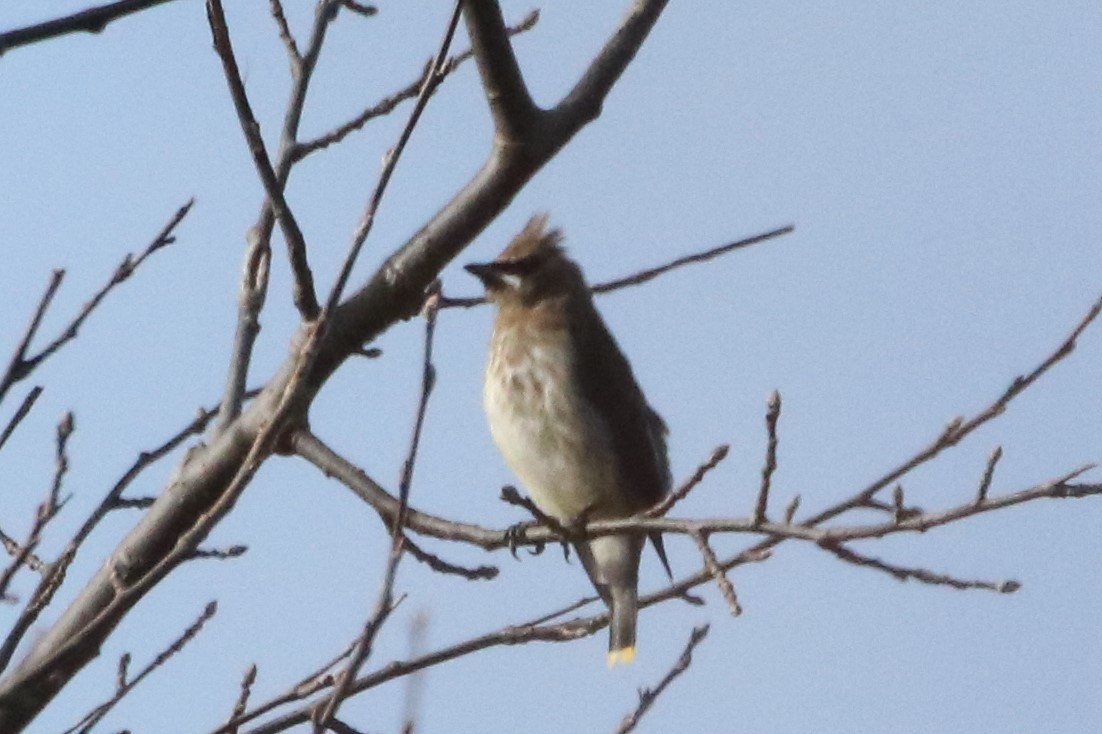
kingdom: Animalia
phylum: Chordata
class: Aves
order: Passeriformes
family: Bombycillidae
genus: Bombycilla
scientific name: Bombycilla cedrorum
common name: Cedar waxwing
